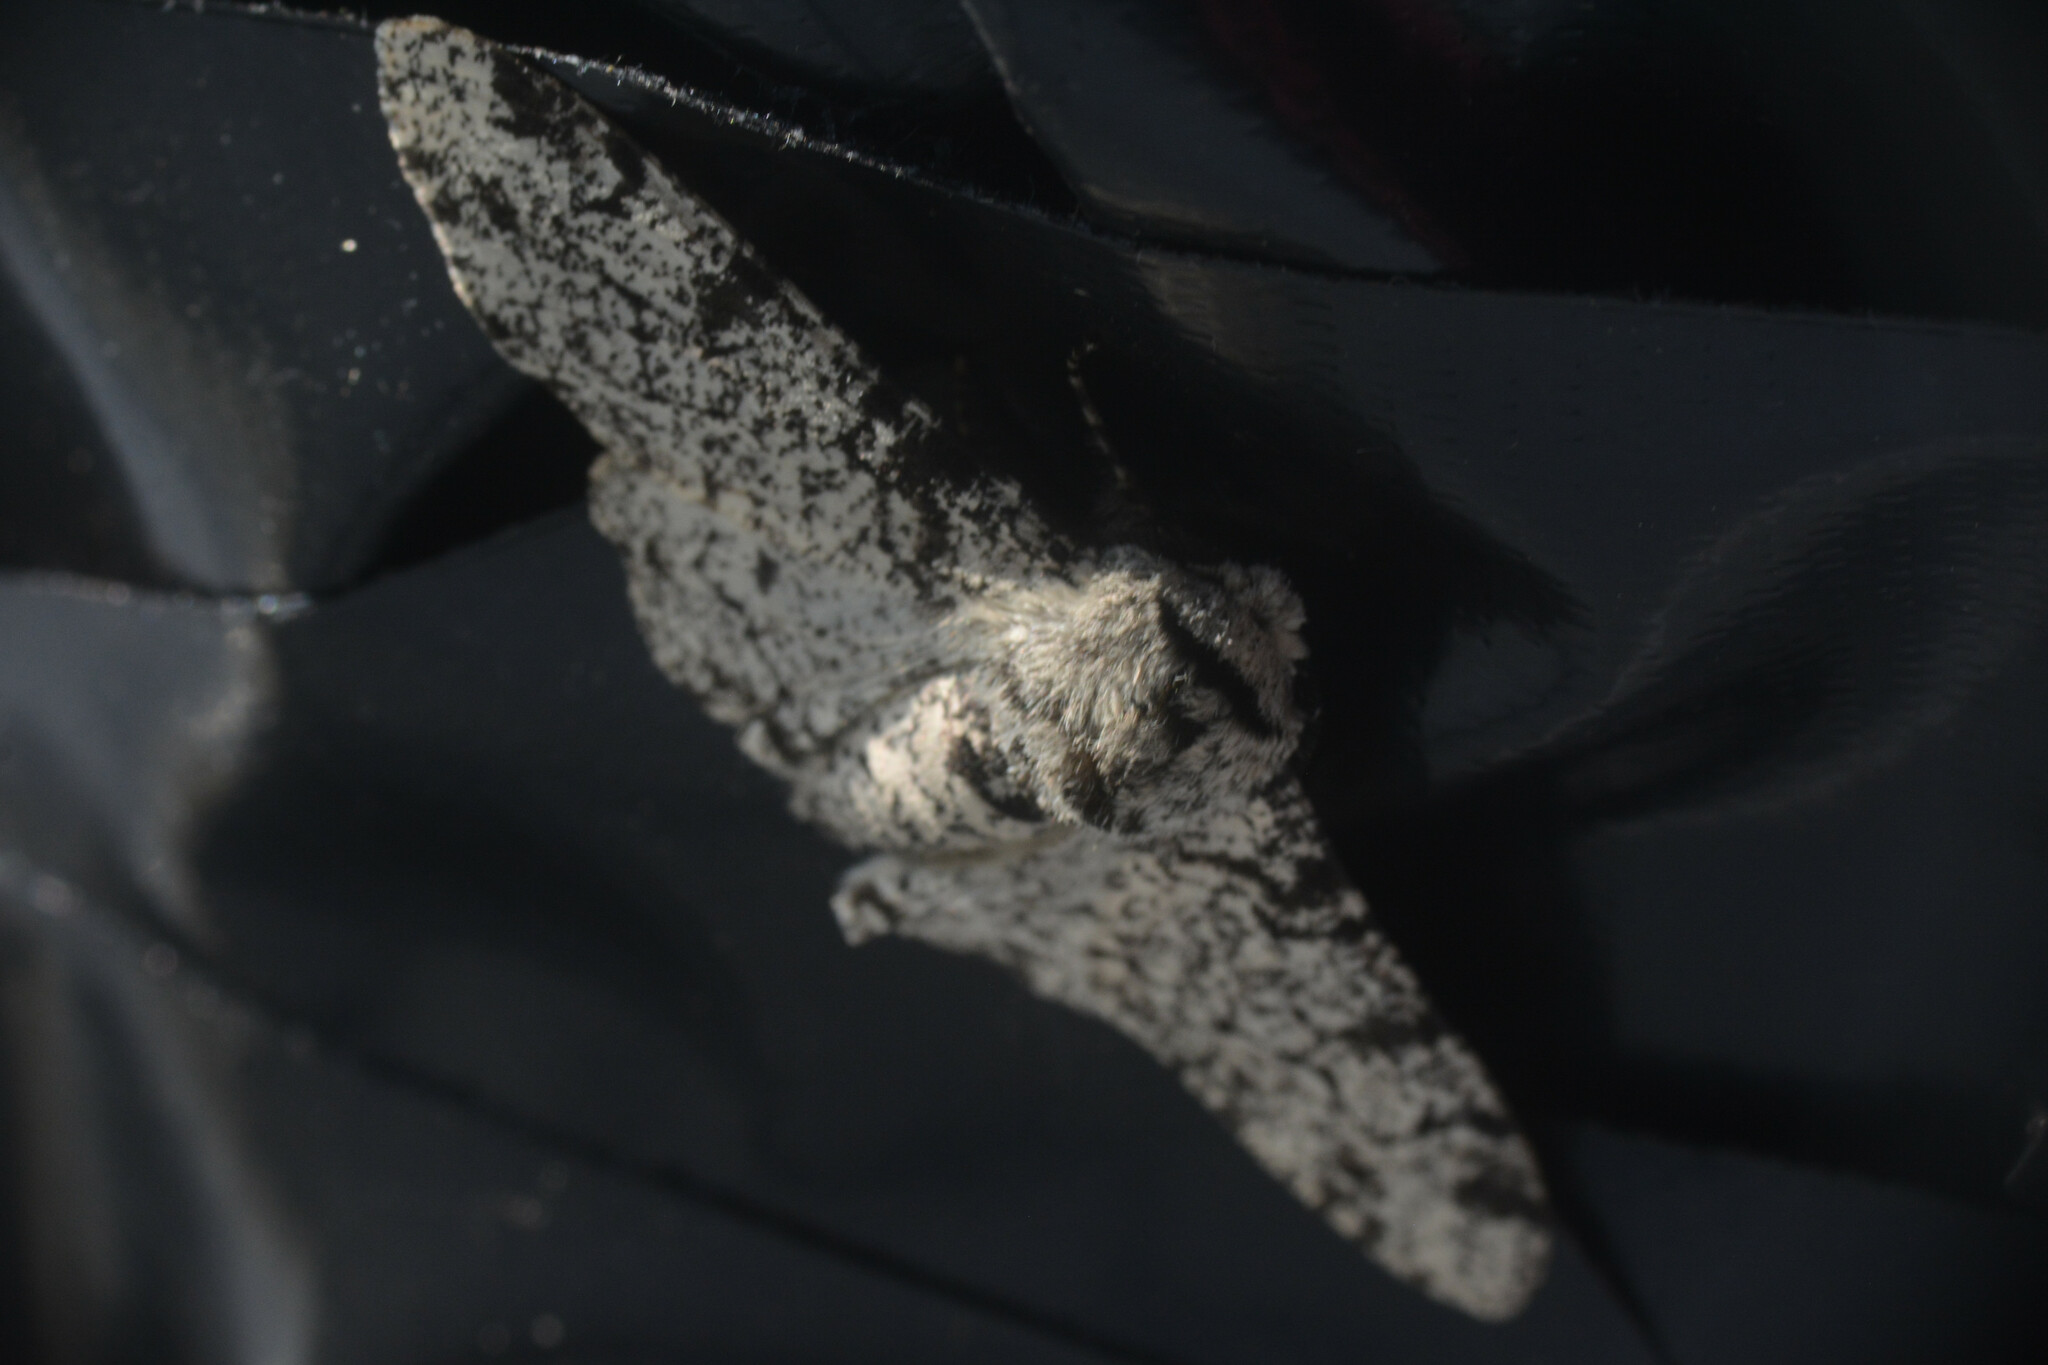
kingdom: Animalia
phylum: Arthropoda
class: Insecta
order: Lepidoptera
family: Geometridae
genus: Biston
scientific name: Biston betularia
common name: Peppered moth
